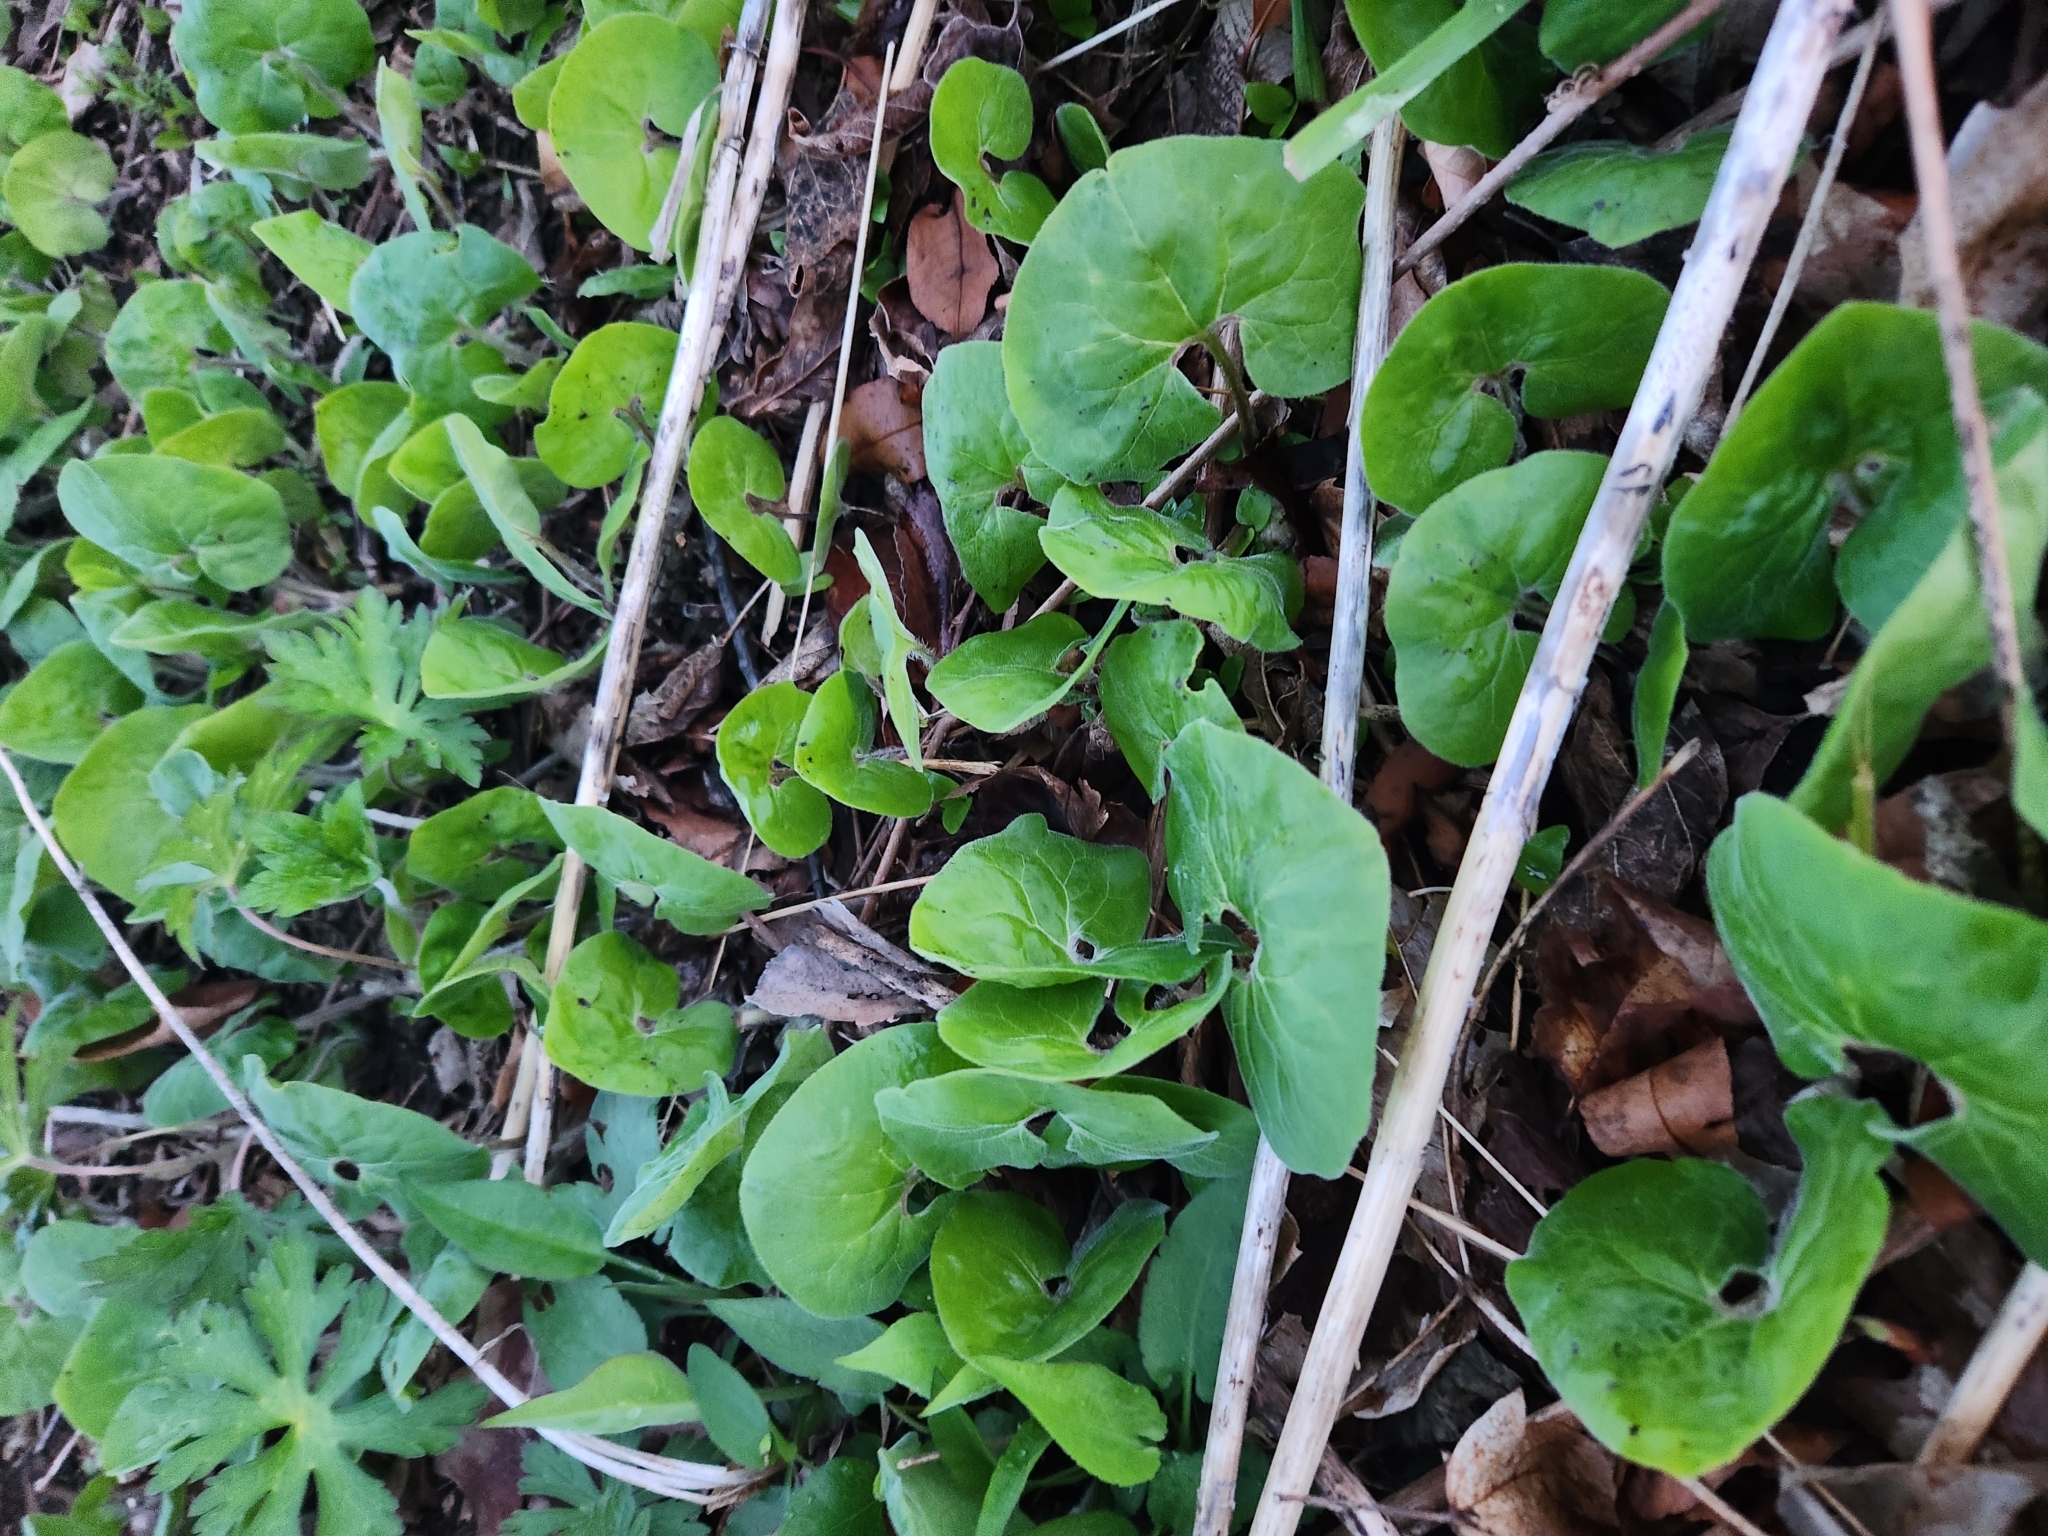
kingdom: Plantae
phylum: Tracheophyta
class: Magnoliopsida
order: Piperales
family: Aristolochiaceae
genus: Asarum
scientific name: Asarum canadense
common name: Wild ginger
